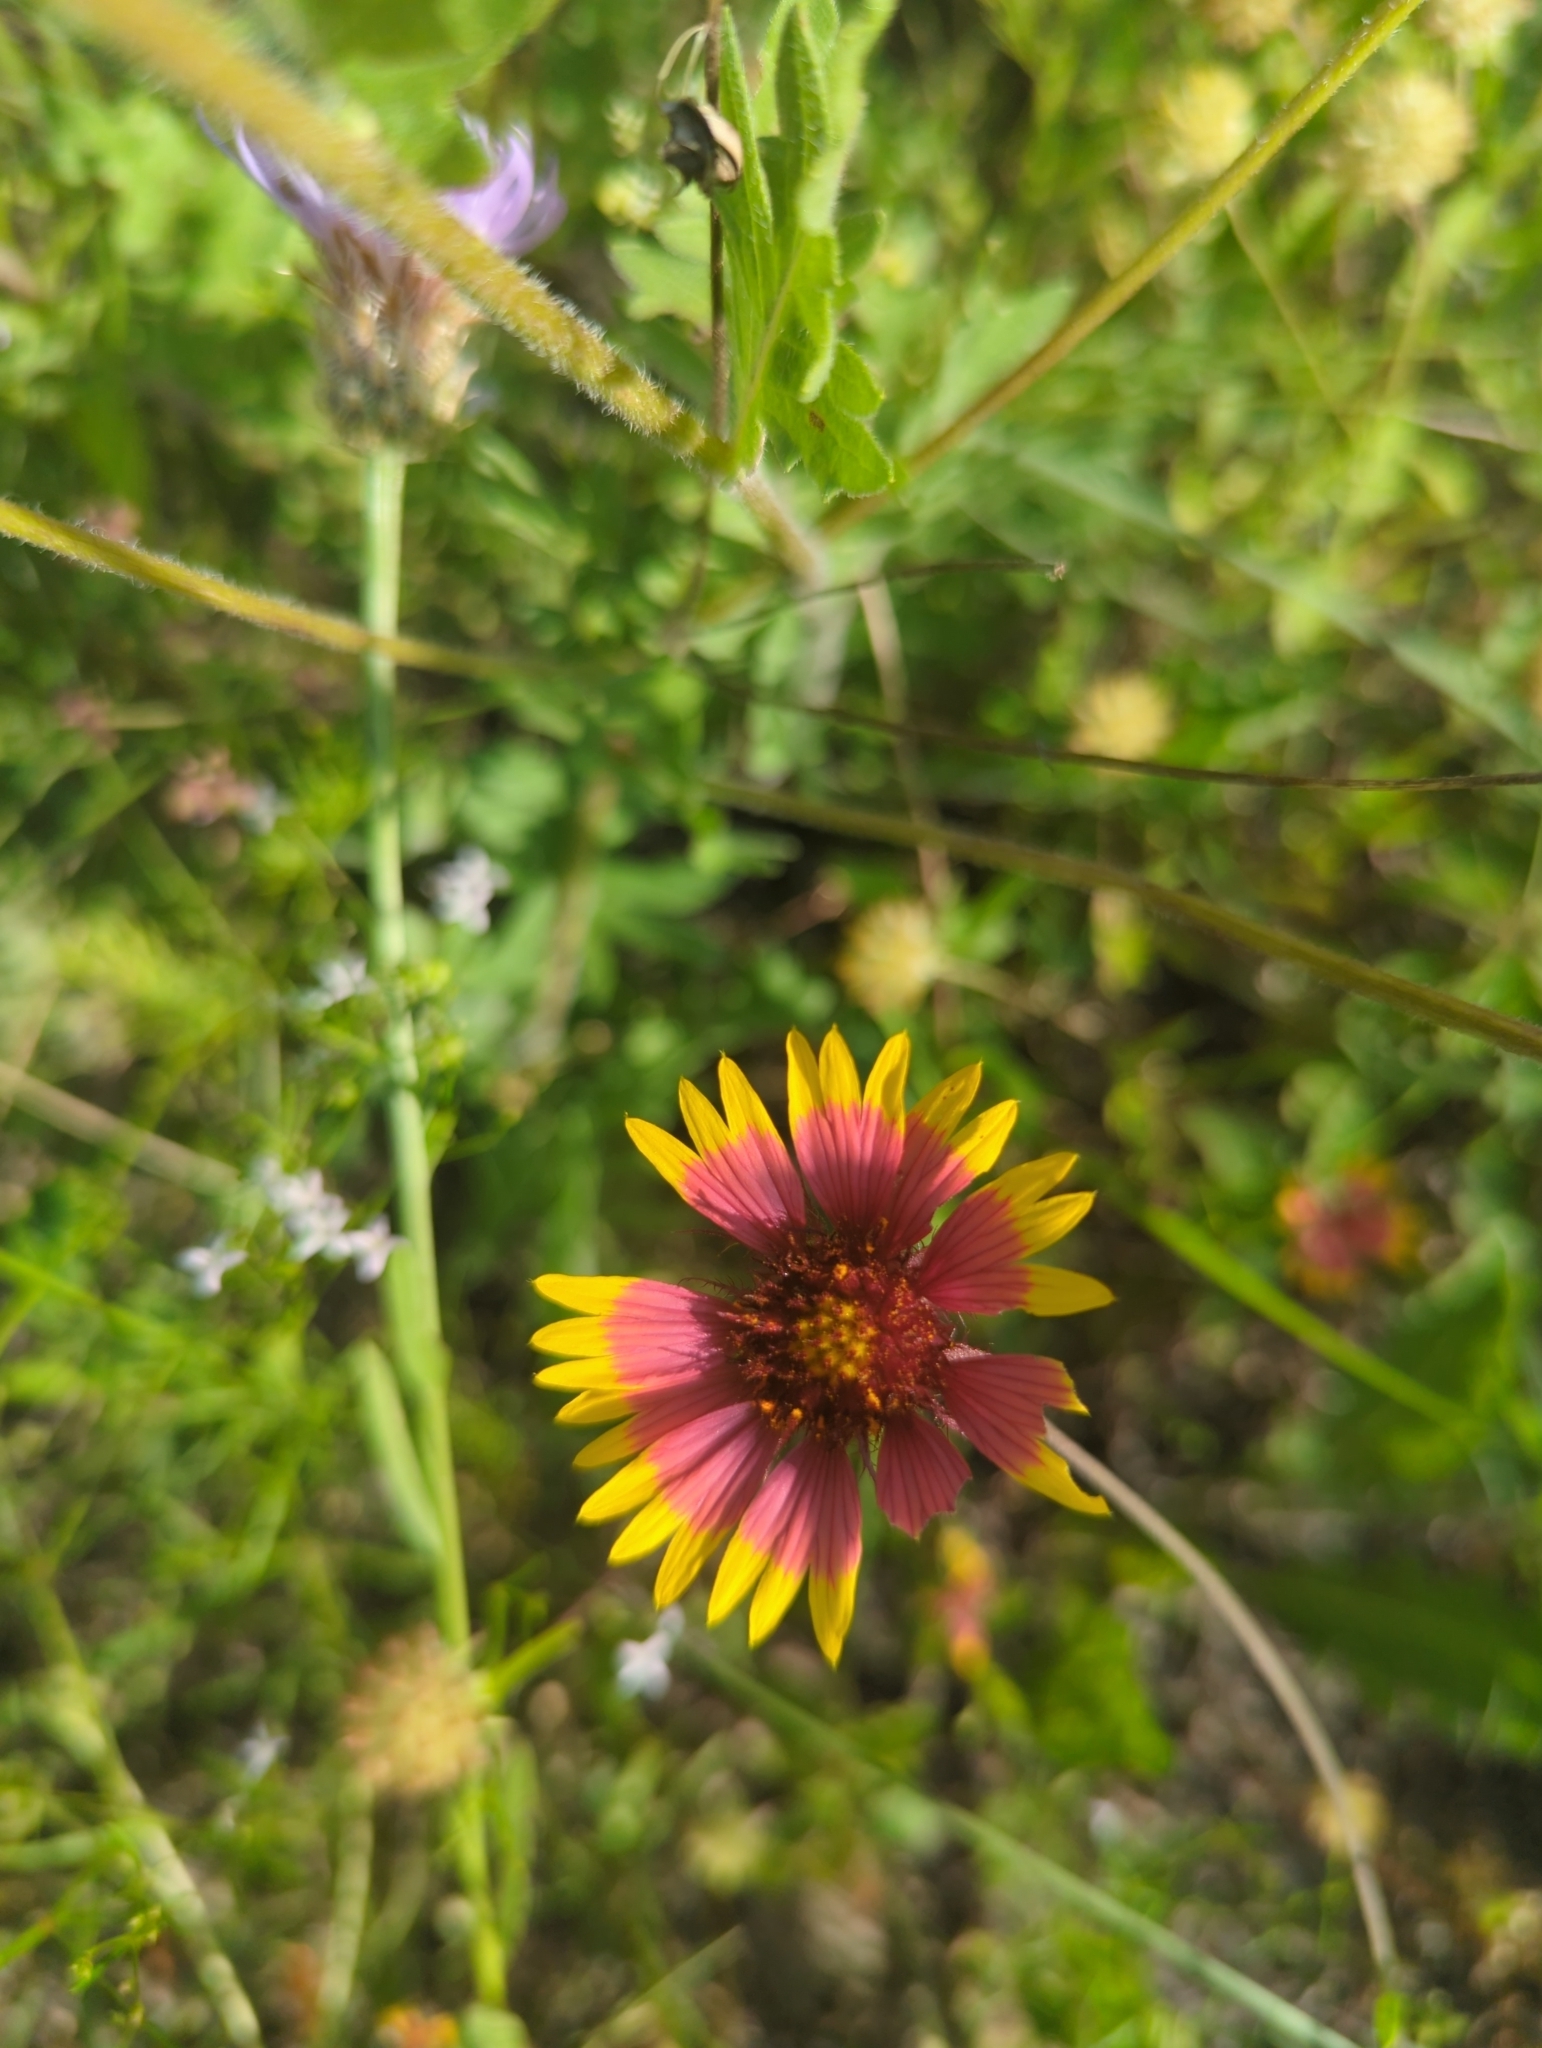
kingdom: Plantae
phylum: Tracheophyta
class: Magnoliopsida
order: Asterales
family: Asteraceae
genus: Gaillardia
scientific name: Gaillardia pulchella
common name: Firewheel
